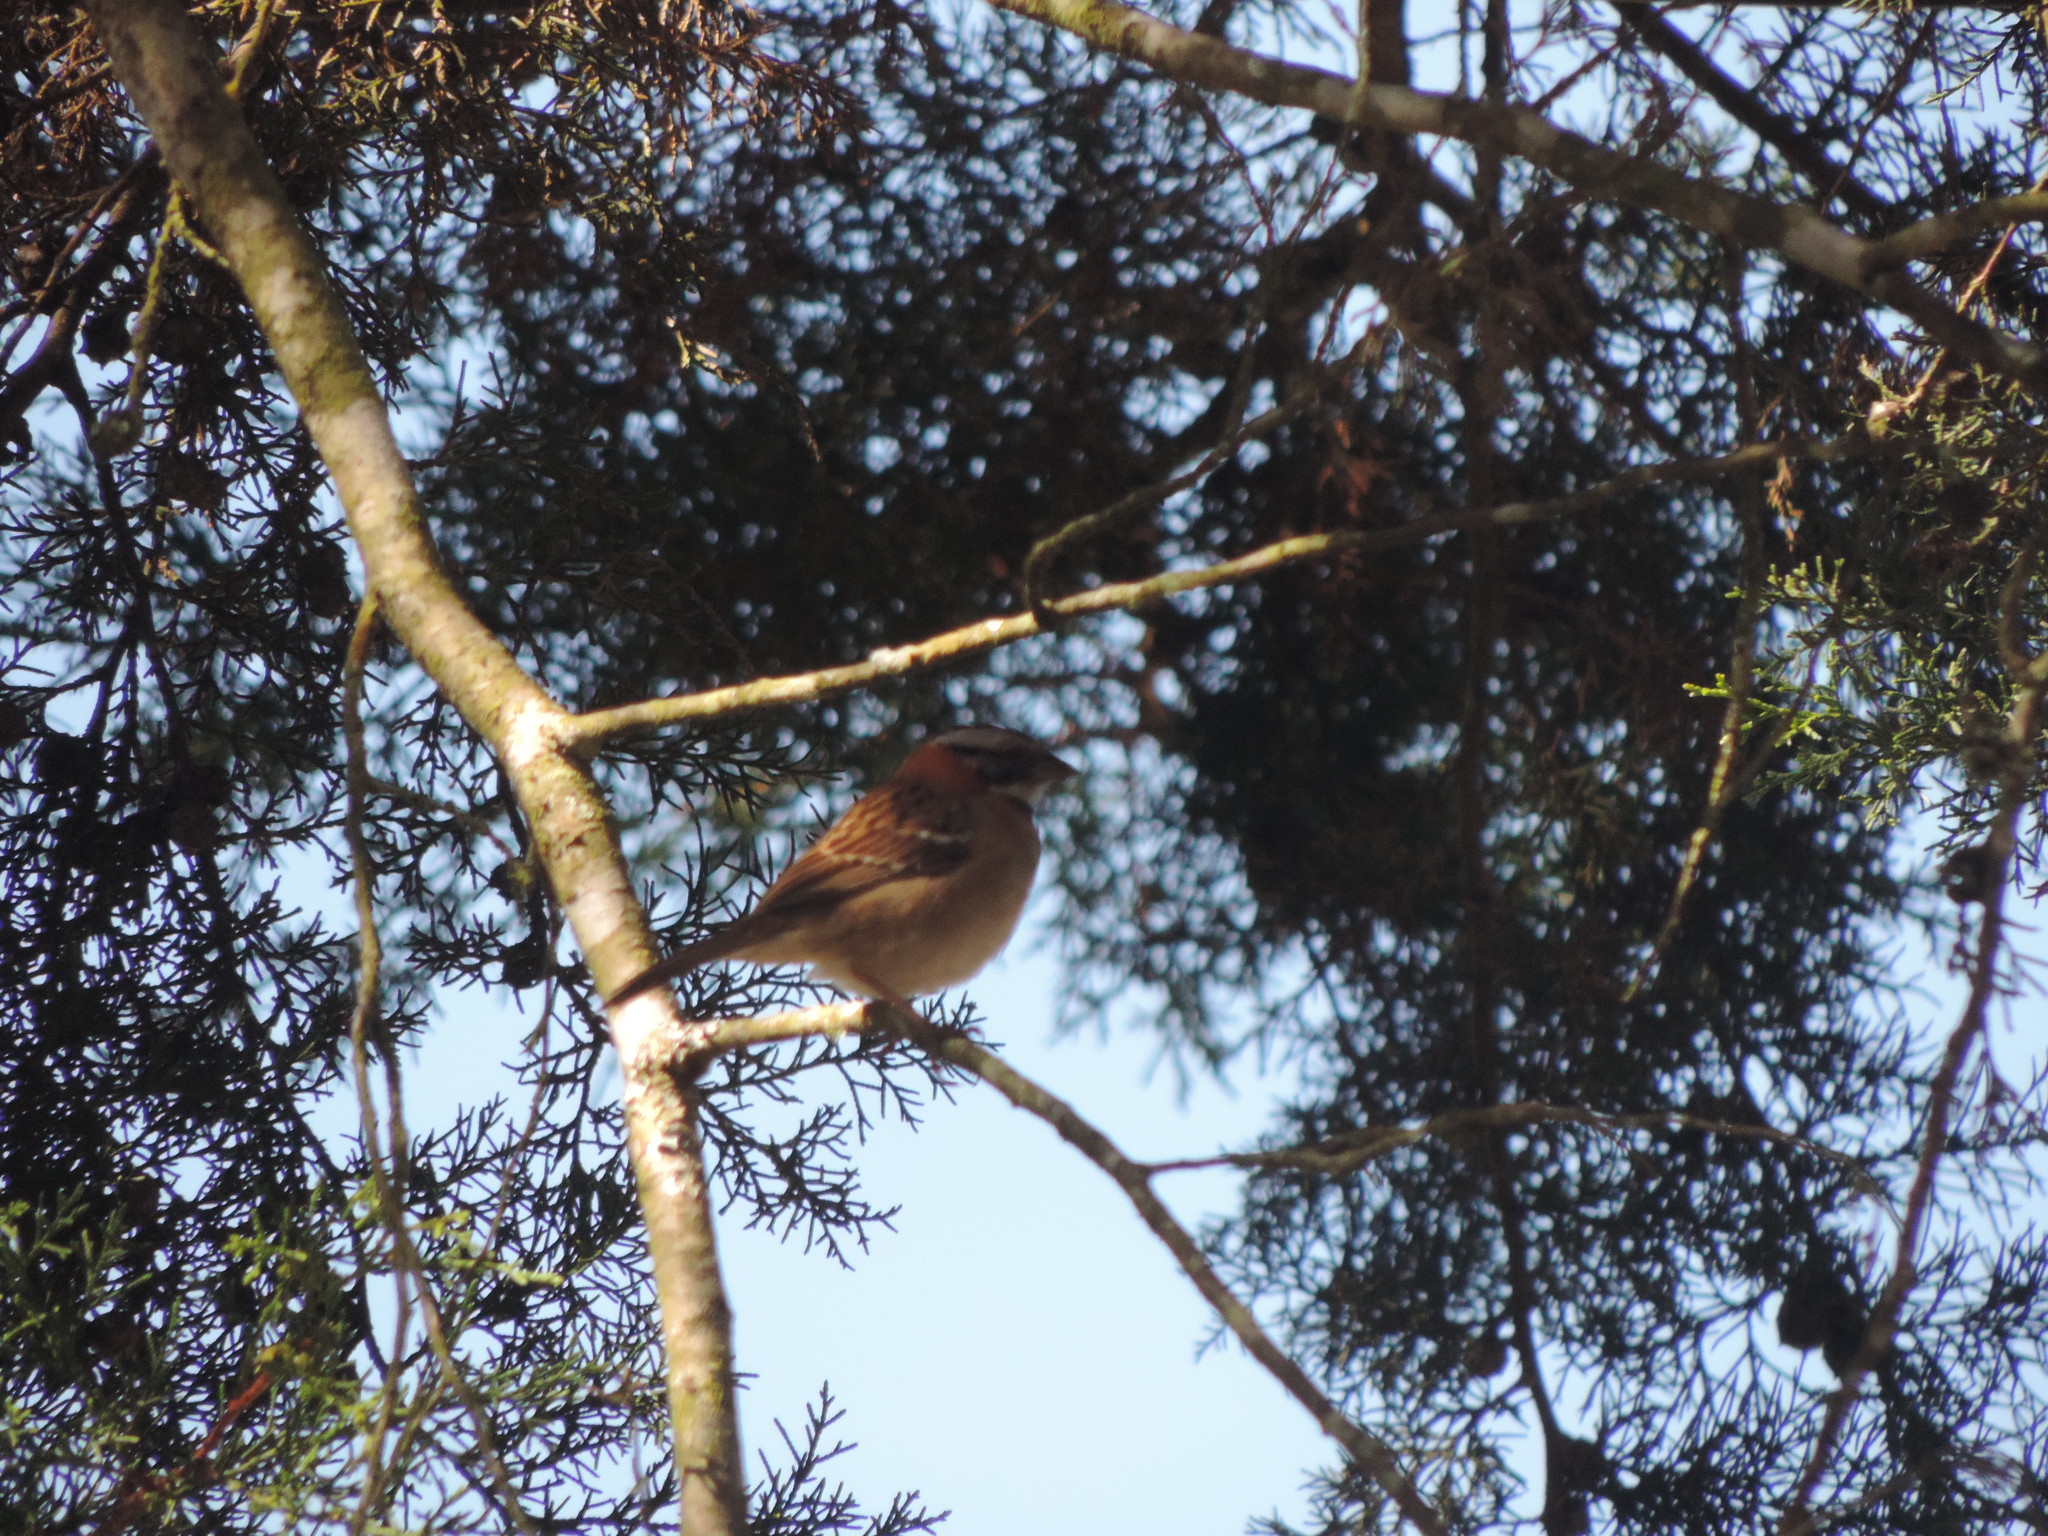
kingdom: Animalia
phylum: Chordata
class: Aves
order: Passeriformes
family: Passerellidae
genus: Zonotrichia
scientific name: Zonotrichia capensis
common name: Rufous-collared sparrow
